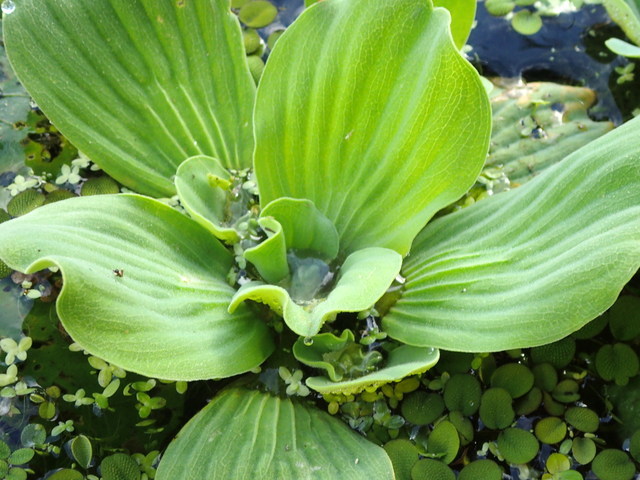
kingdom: Plantae
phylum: Tracheophyta
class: Liliopsida
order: Alismatales
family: Araceae
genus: Pistia
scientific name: Pistia stratiotes
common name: Water lettuce
